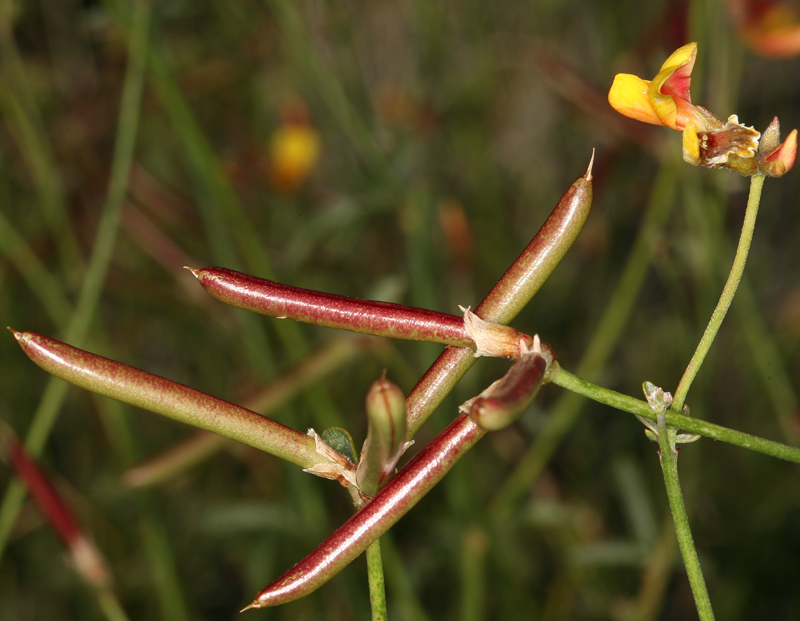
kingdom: Plantae
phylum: Tracheophyta
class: Magnoliopsida
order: Fabales
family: Fabaceae
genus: Acmispon
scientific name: Acmispon rigidus
